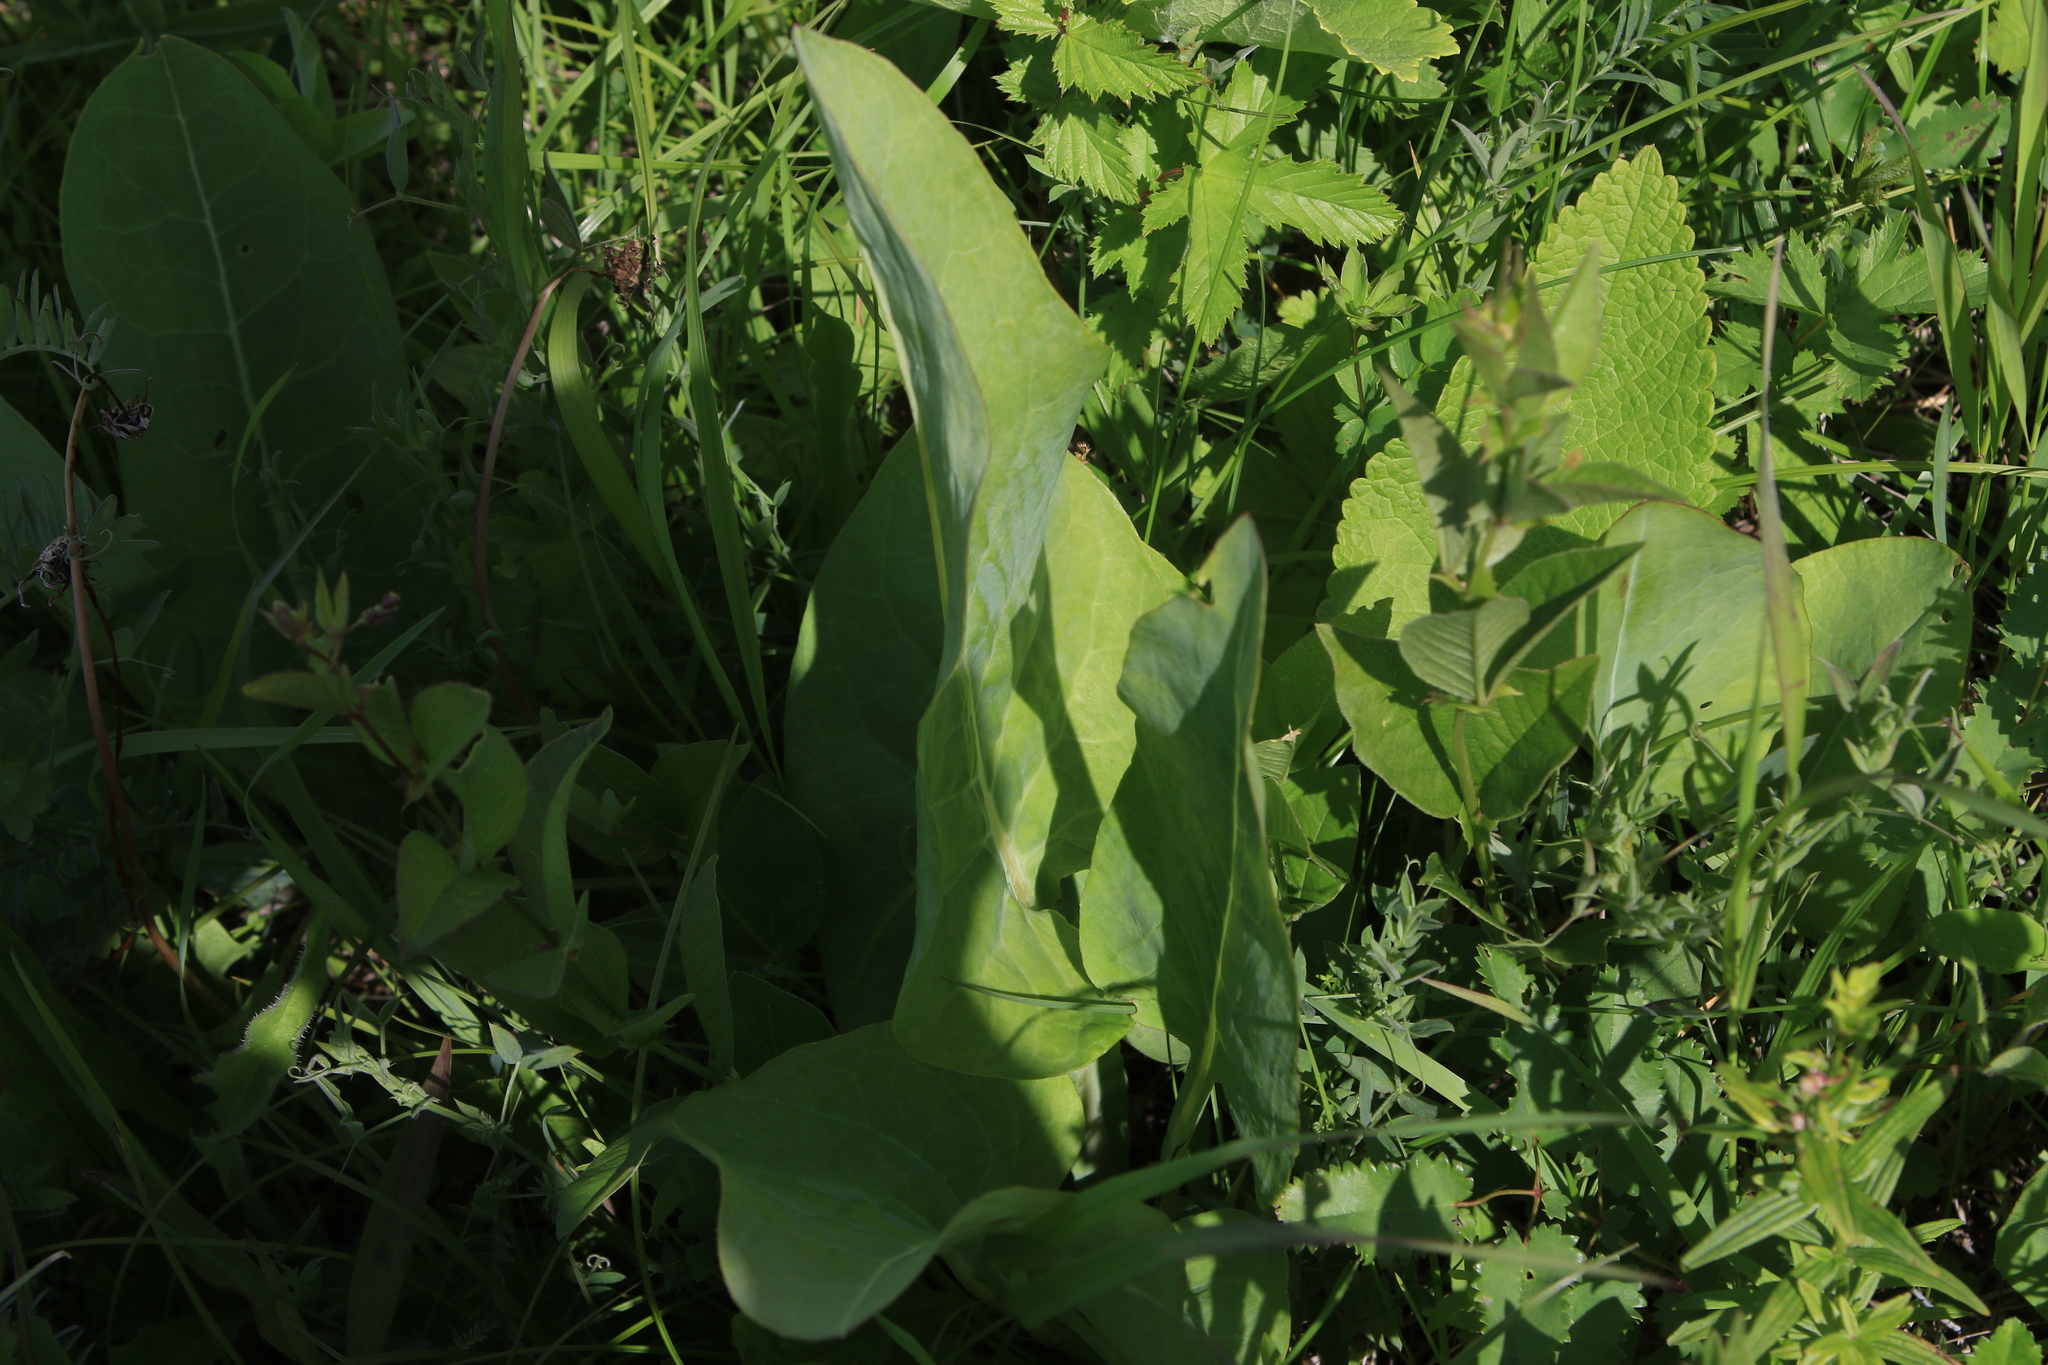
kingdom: Plantae
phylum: Tracheophyta
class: Magnoliopsida
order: Asterales
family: Asteraceae
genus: Ligularia
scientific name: Ligularia glauca
